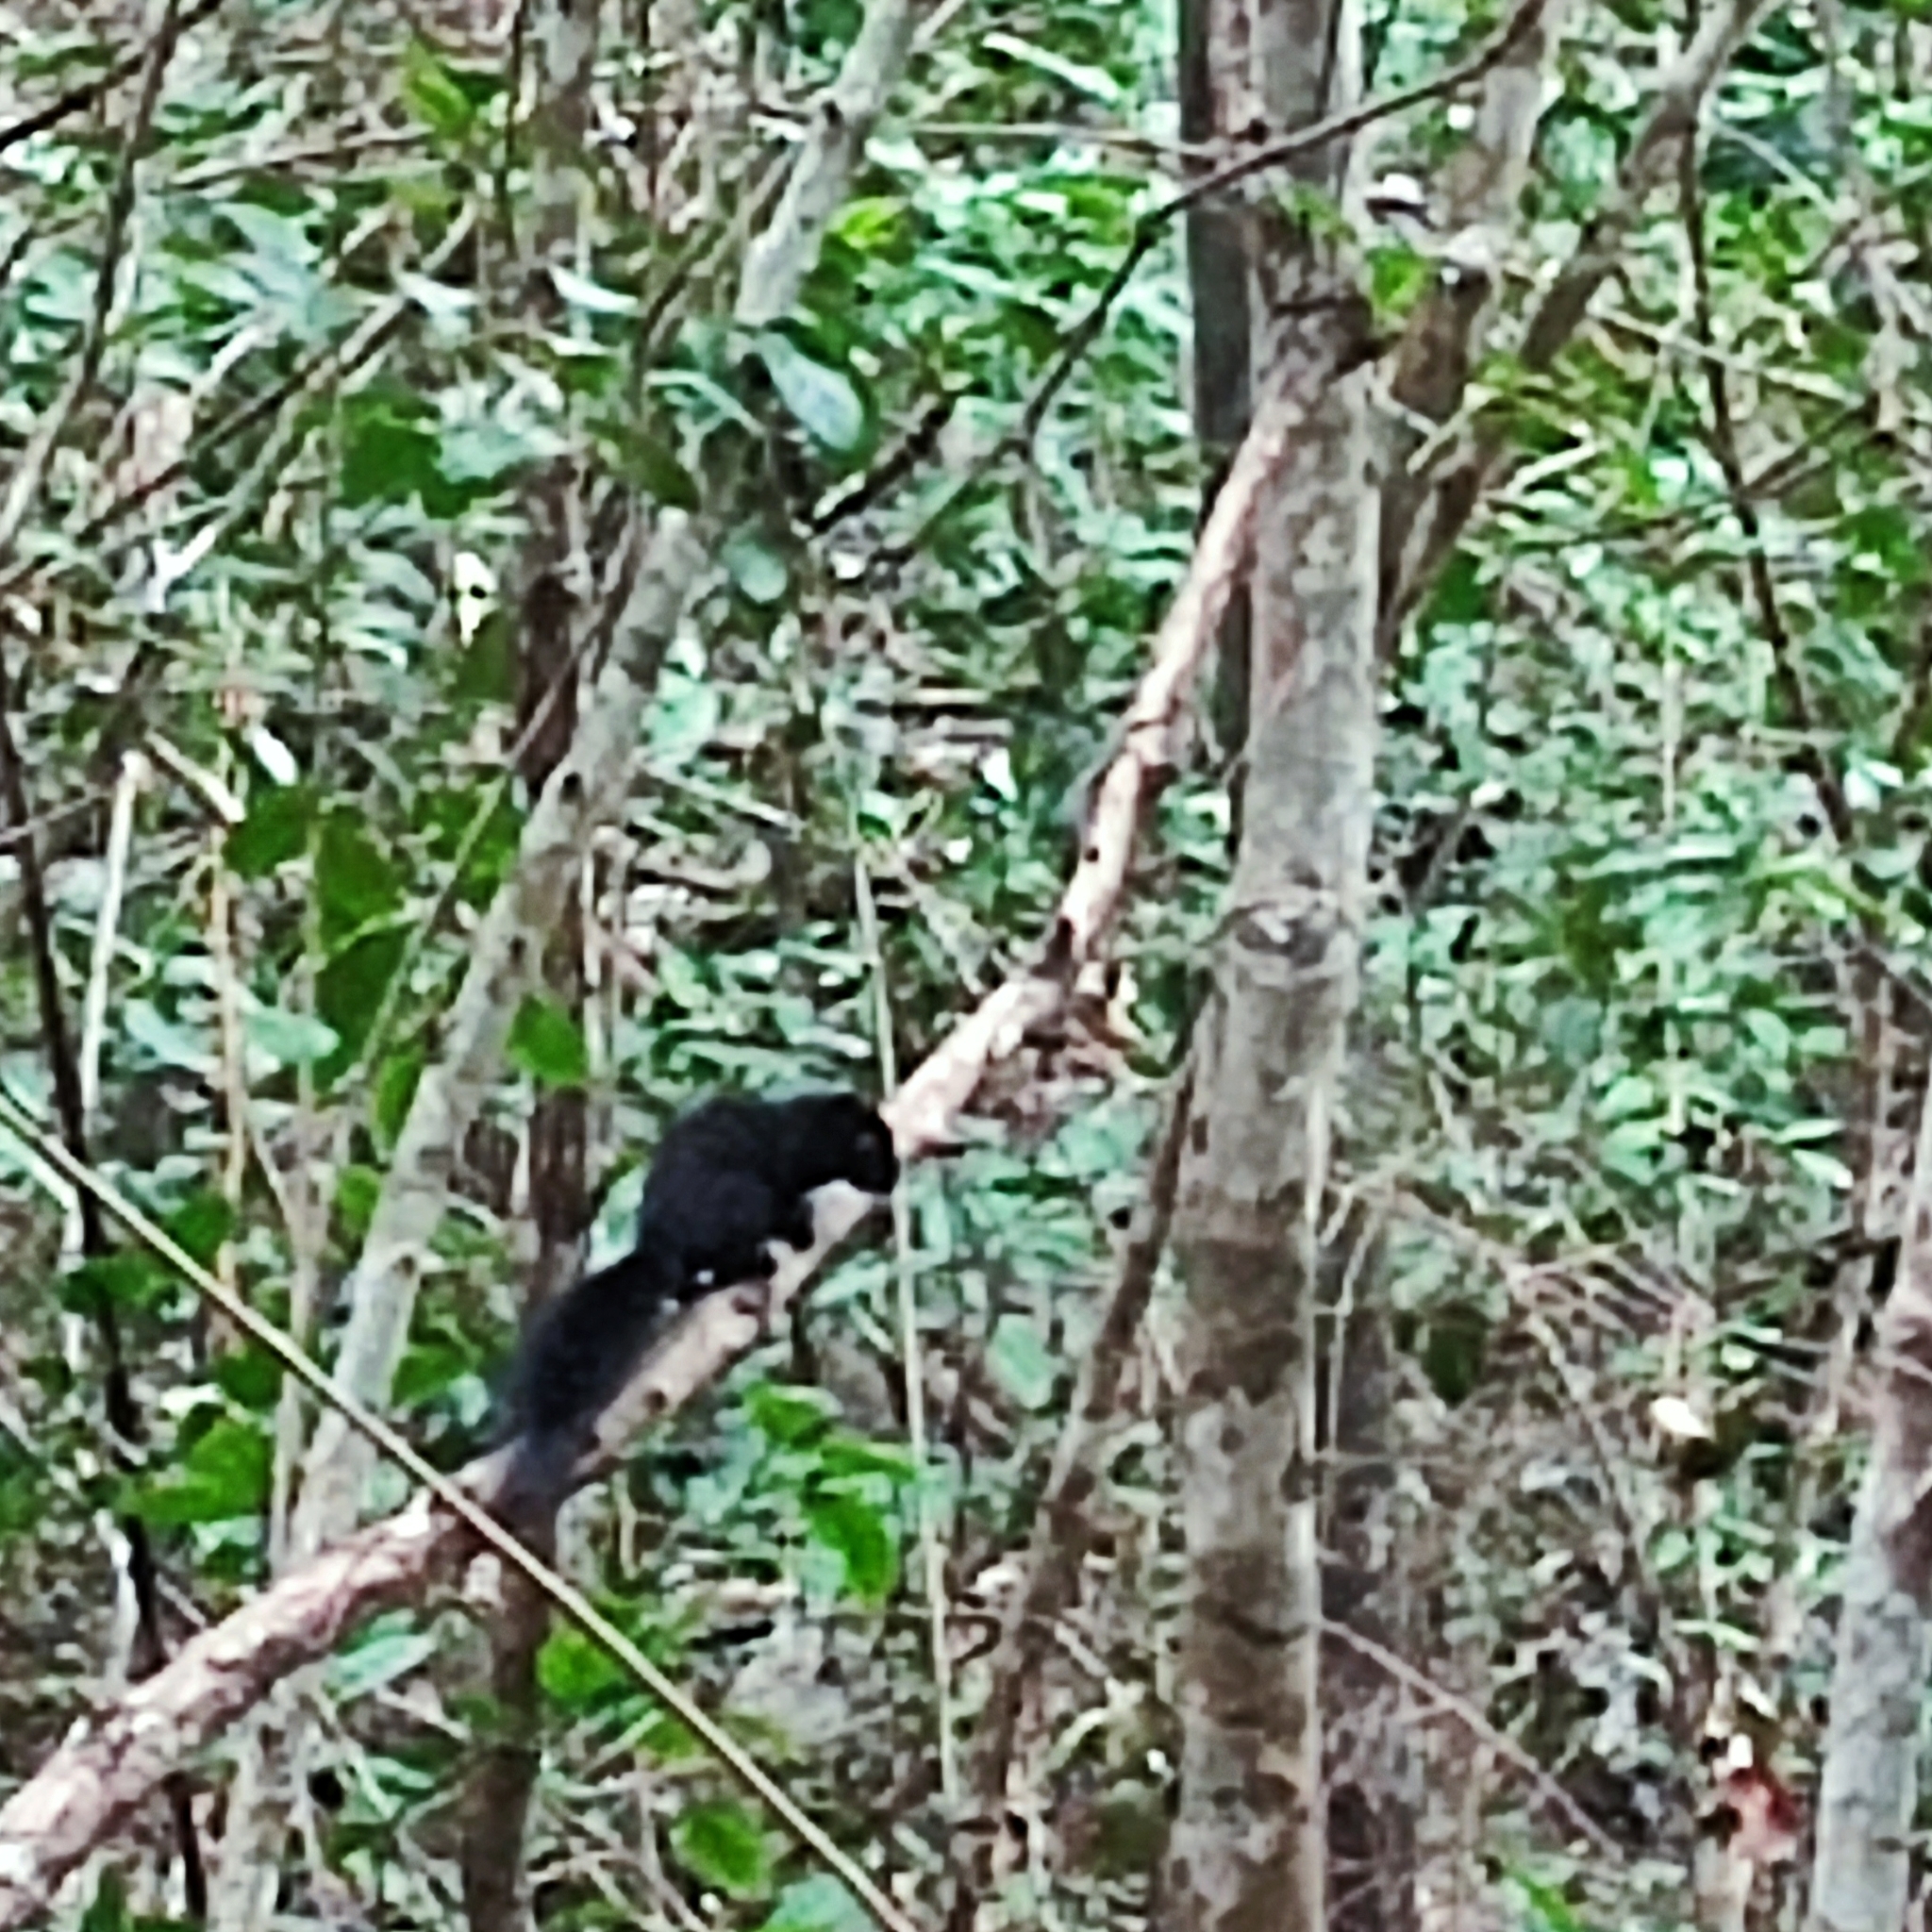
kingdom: Animalia
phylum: Chordata
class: Mammalia
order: Rodentia
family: Sciuridae
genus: Callosciurus
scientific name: Callosciurus finlaysonii
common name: Finlayson's squirrel
